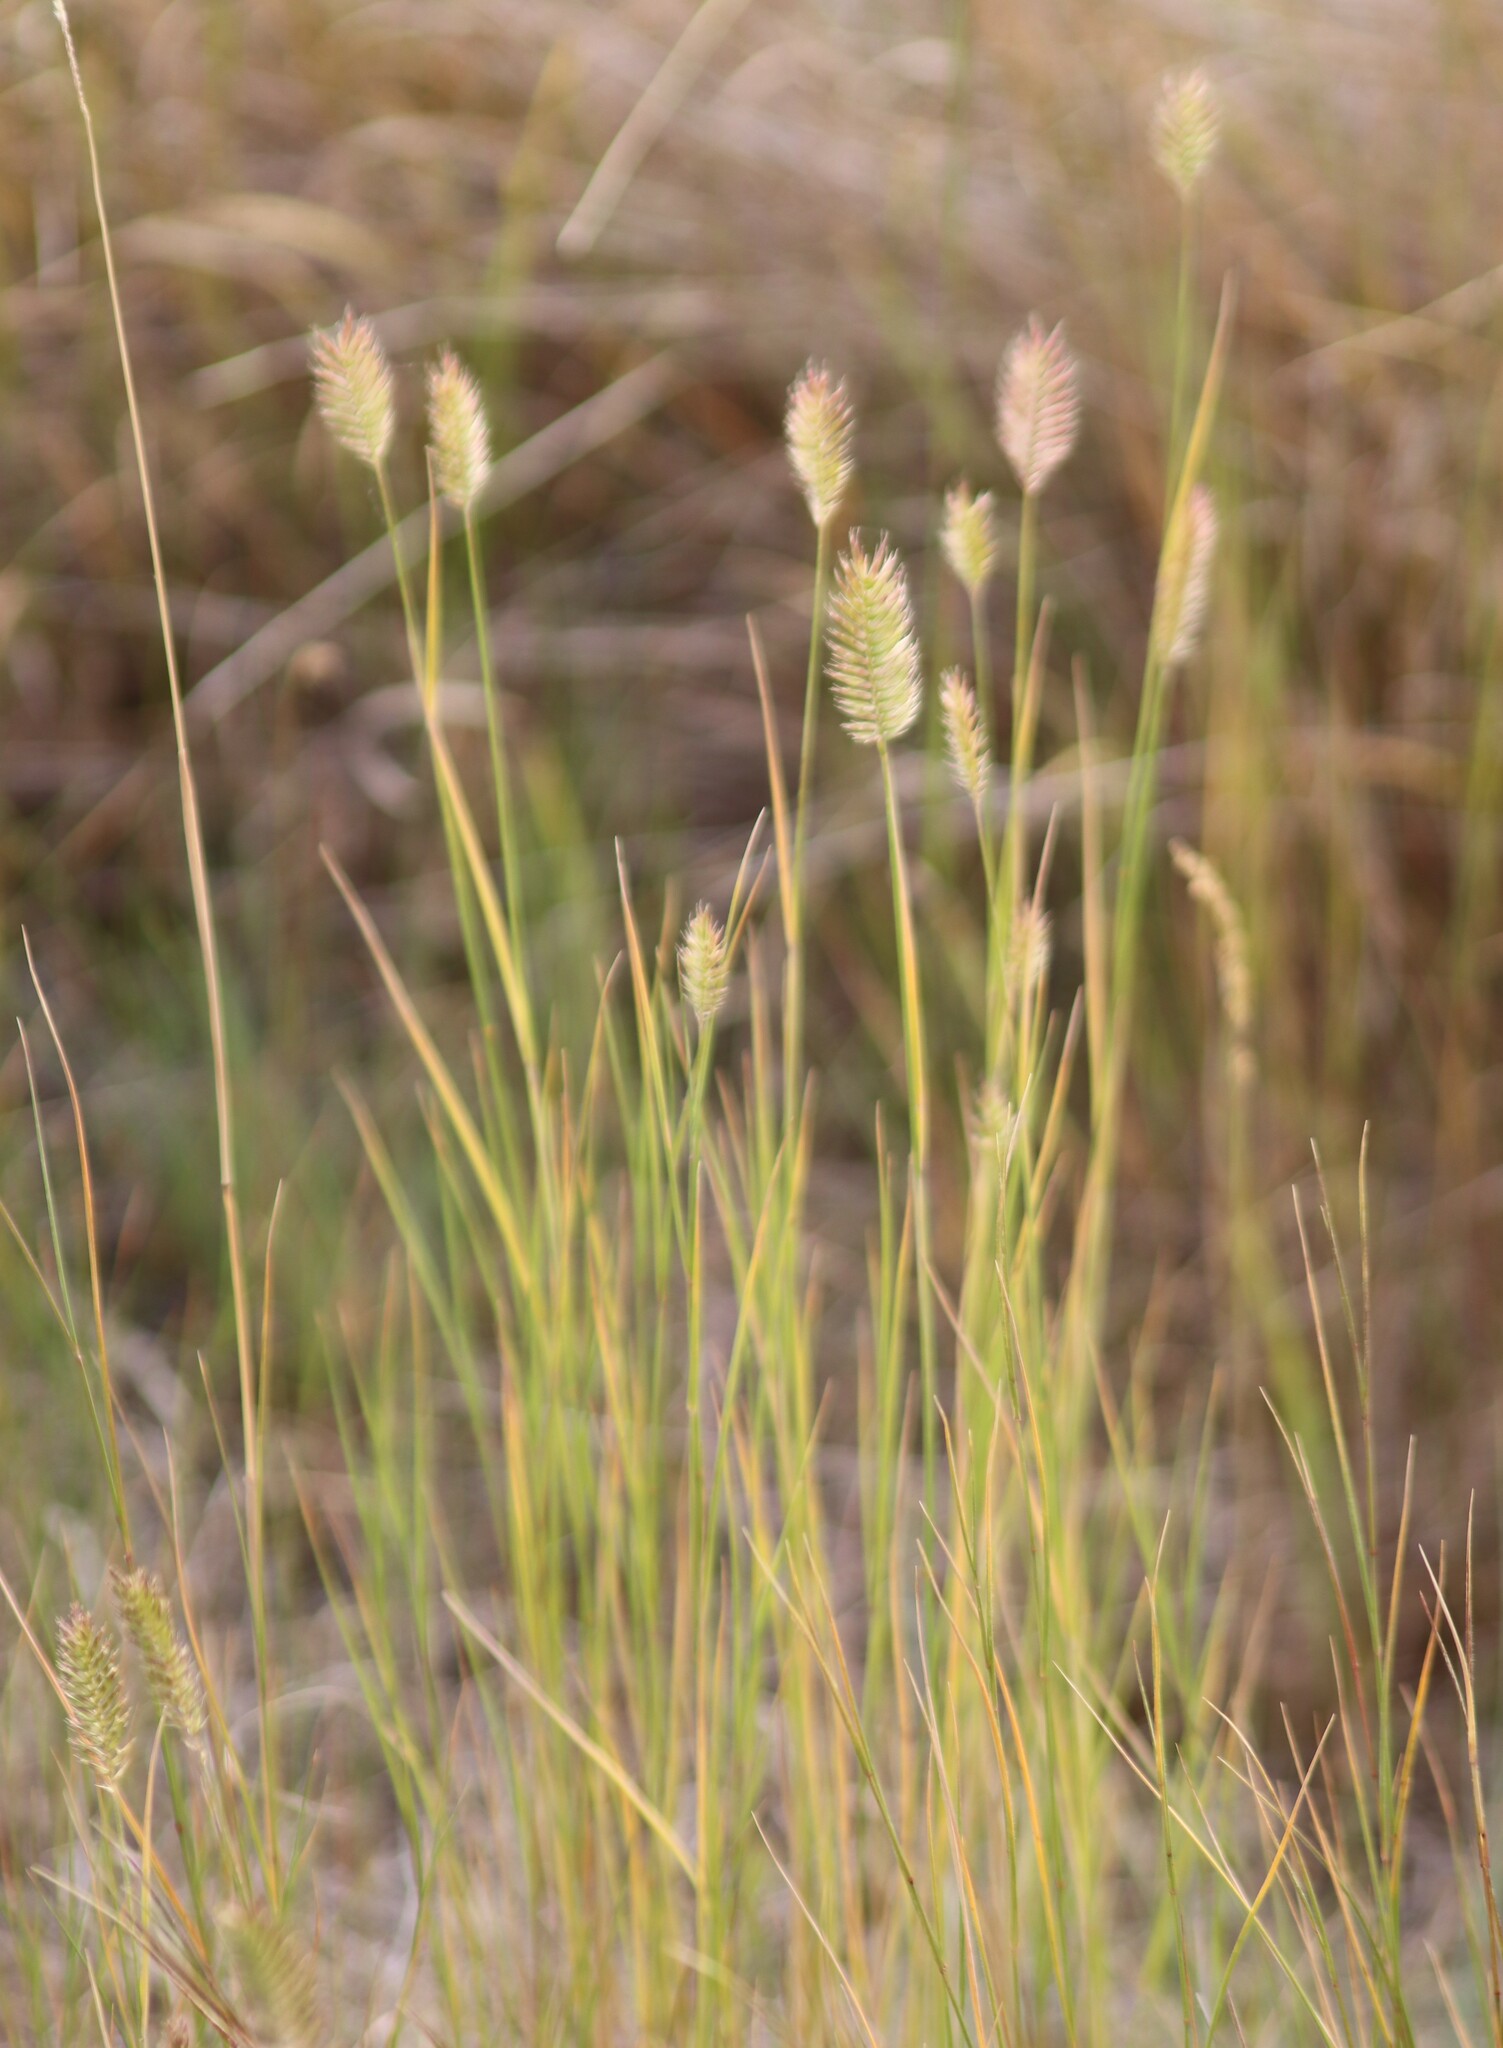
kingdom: Plantae
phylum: Tracheophyta
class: Liliopsida
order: Poales
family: Poaceae
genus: Agropyron
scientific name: Agropyron cristatum
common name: Crested wheatgrass
